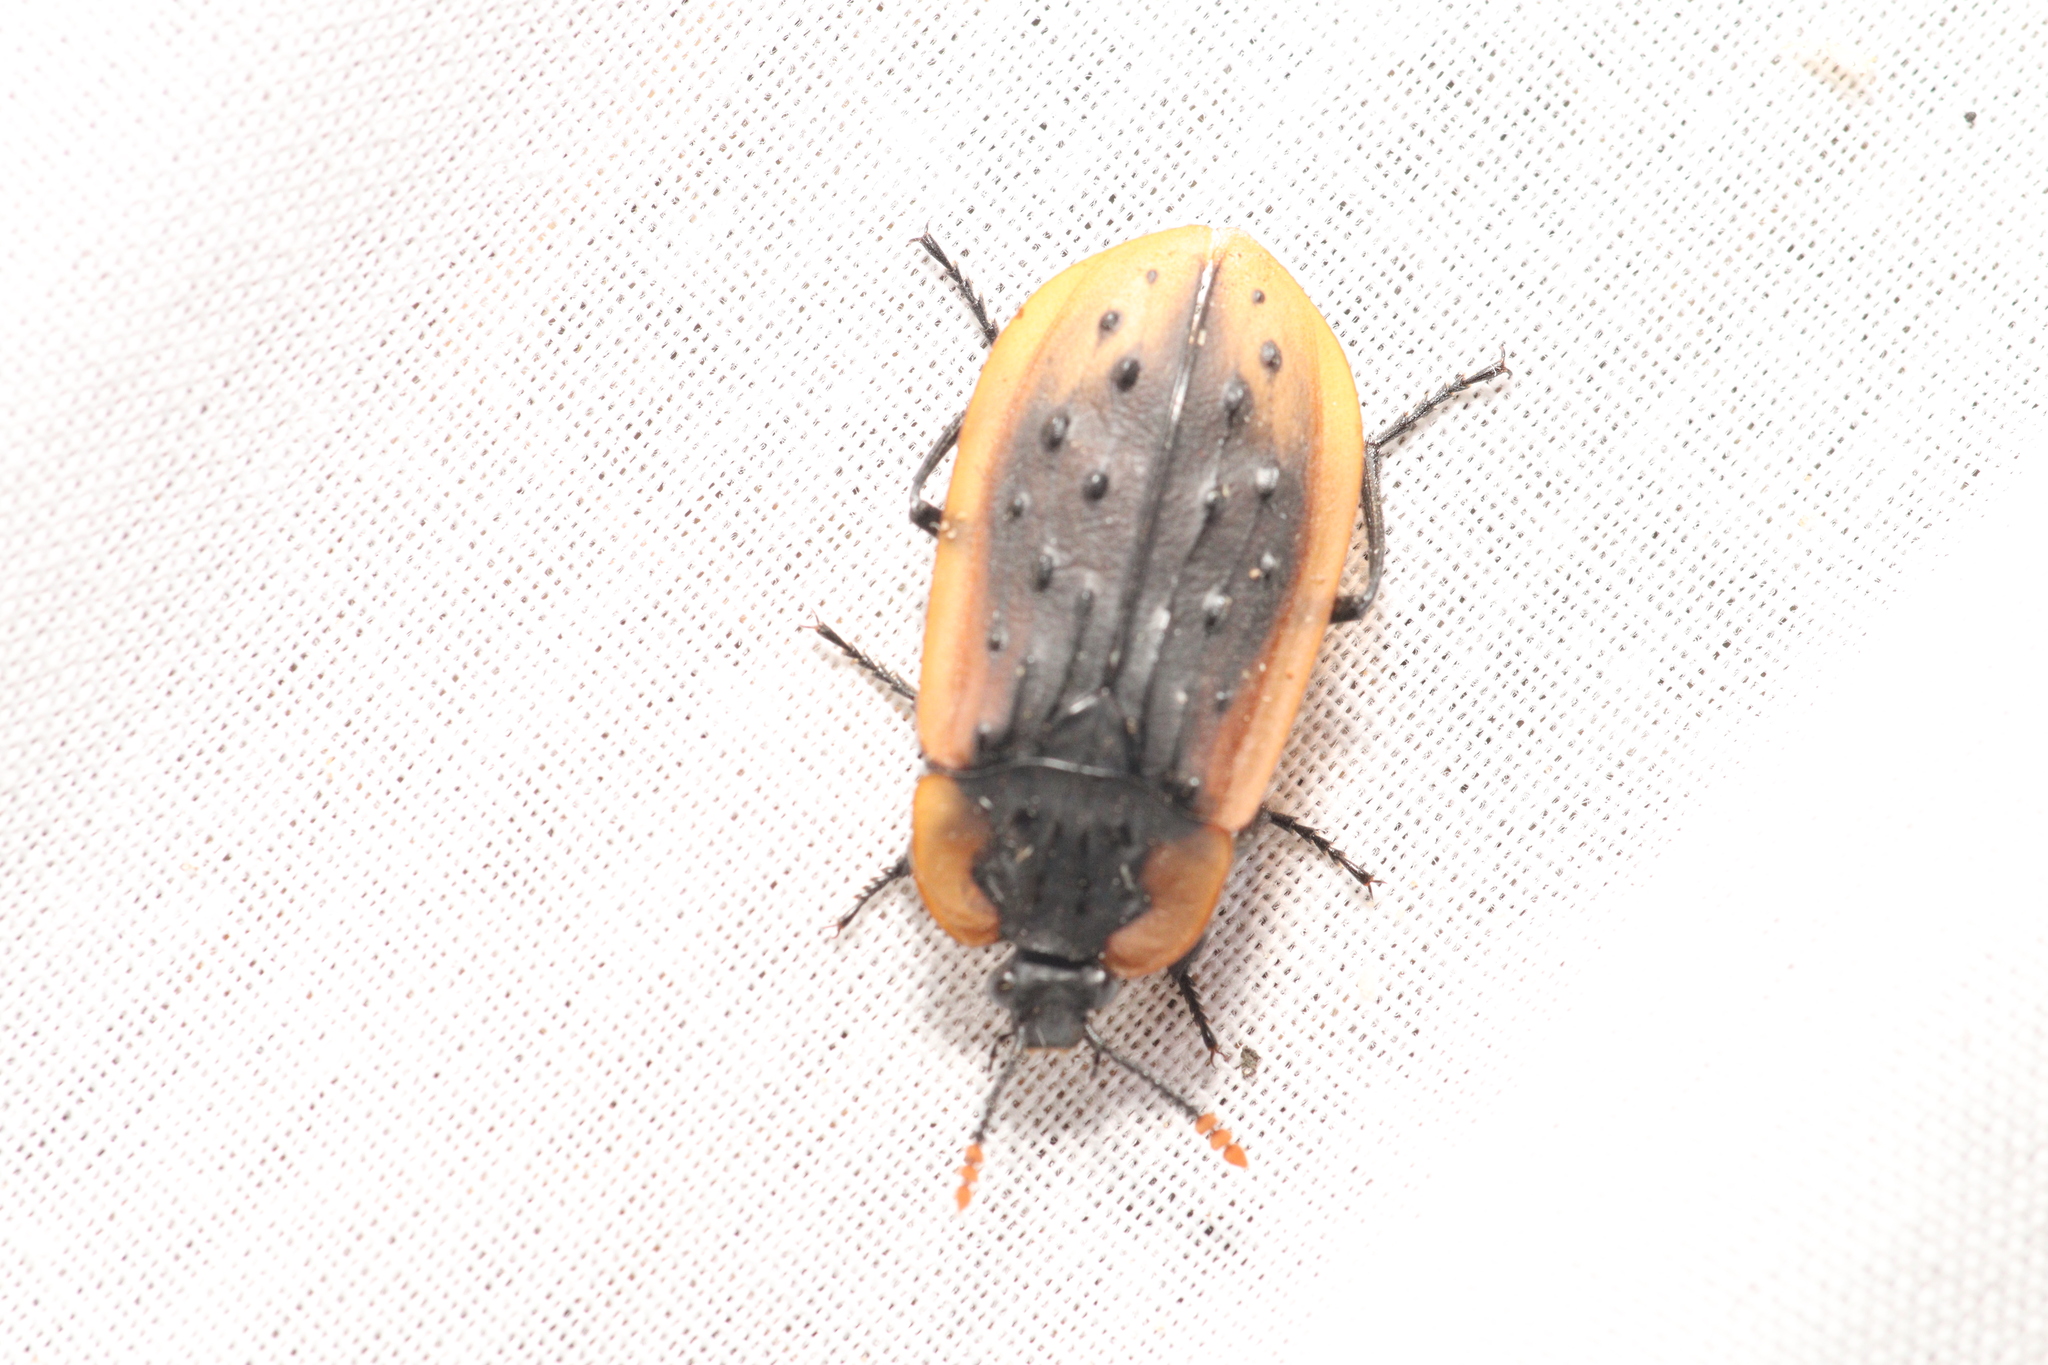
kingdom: Animalia
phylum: Arthropoda
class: Insecta
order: Coleoptera
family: Staphylinidae
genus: Ptomaphila
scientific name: Ptomaphila lacrymosa
